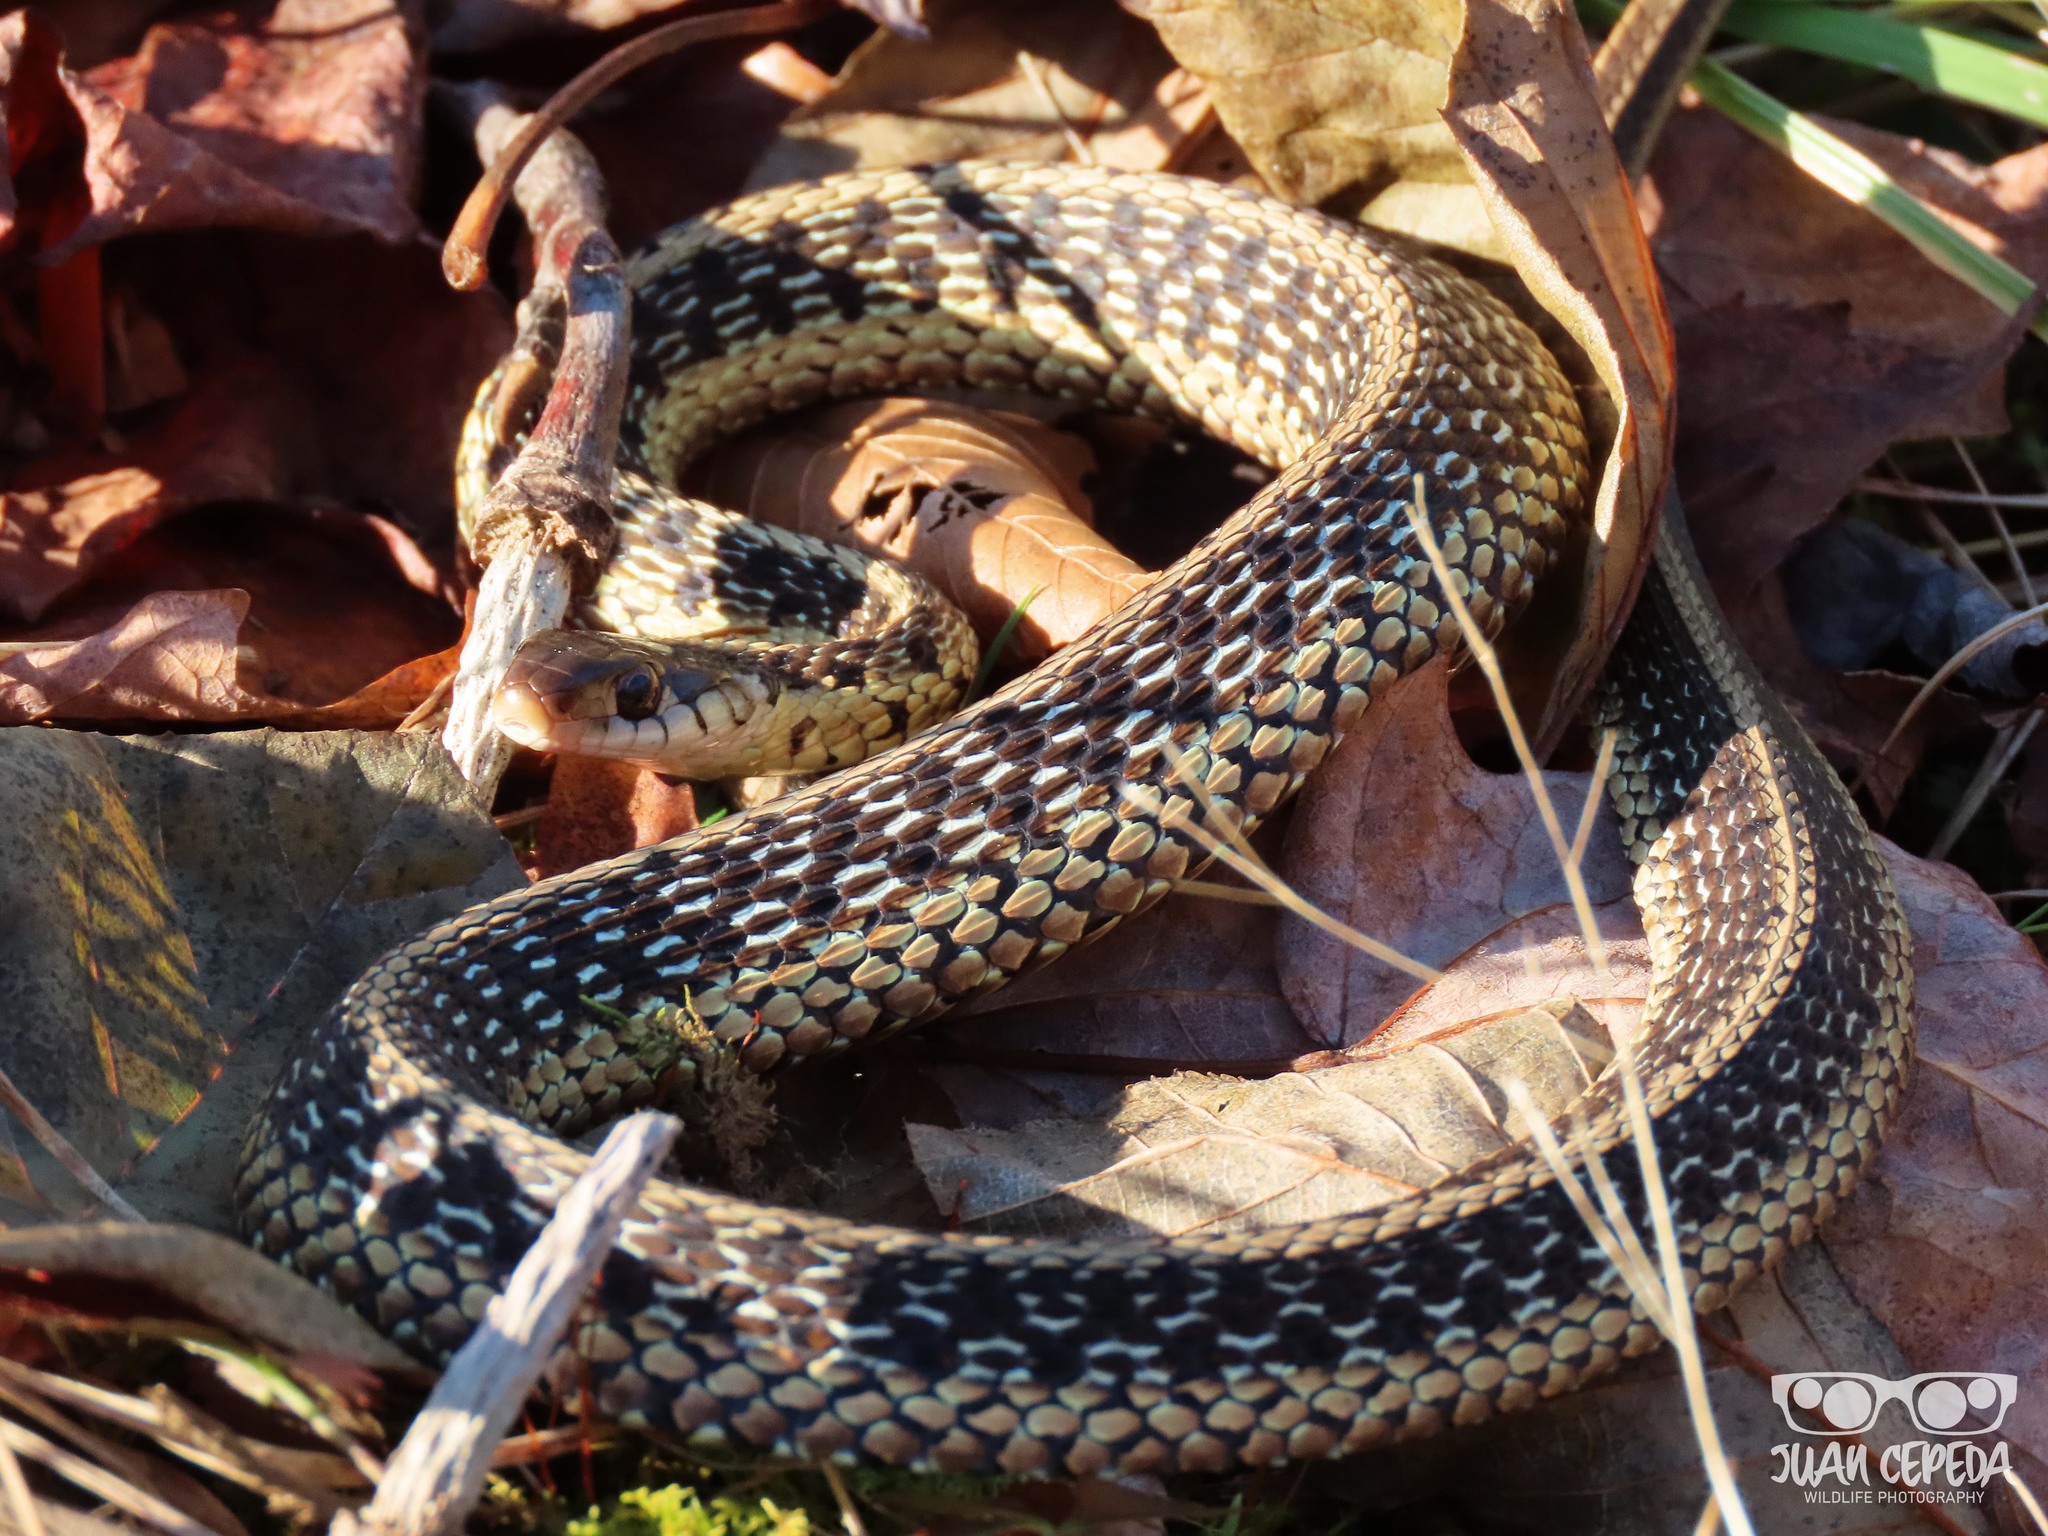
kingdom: Animalia
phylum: Chordata
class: Squamata
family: Colubridae
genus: Thamnophis
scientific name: Thamnophis sirtalis
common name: Common garter snake
